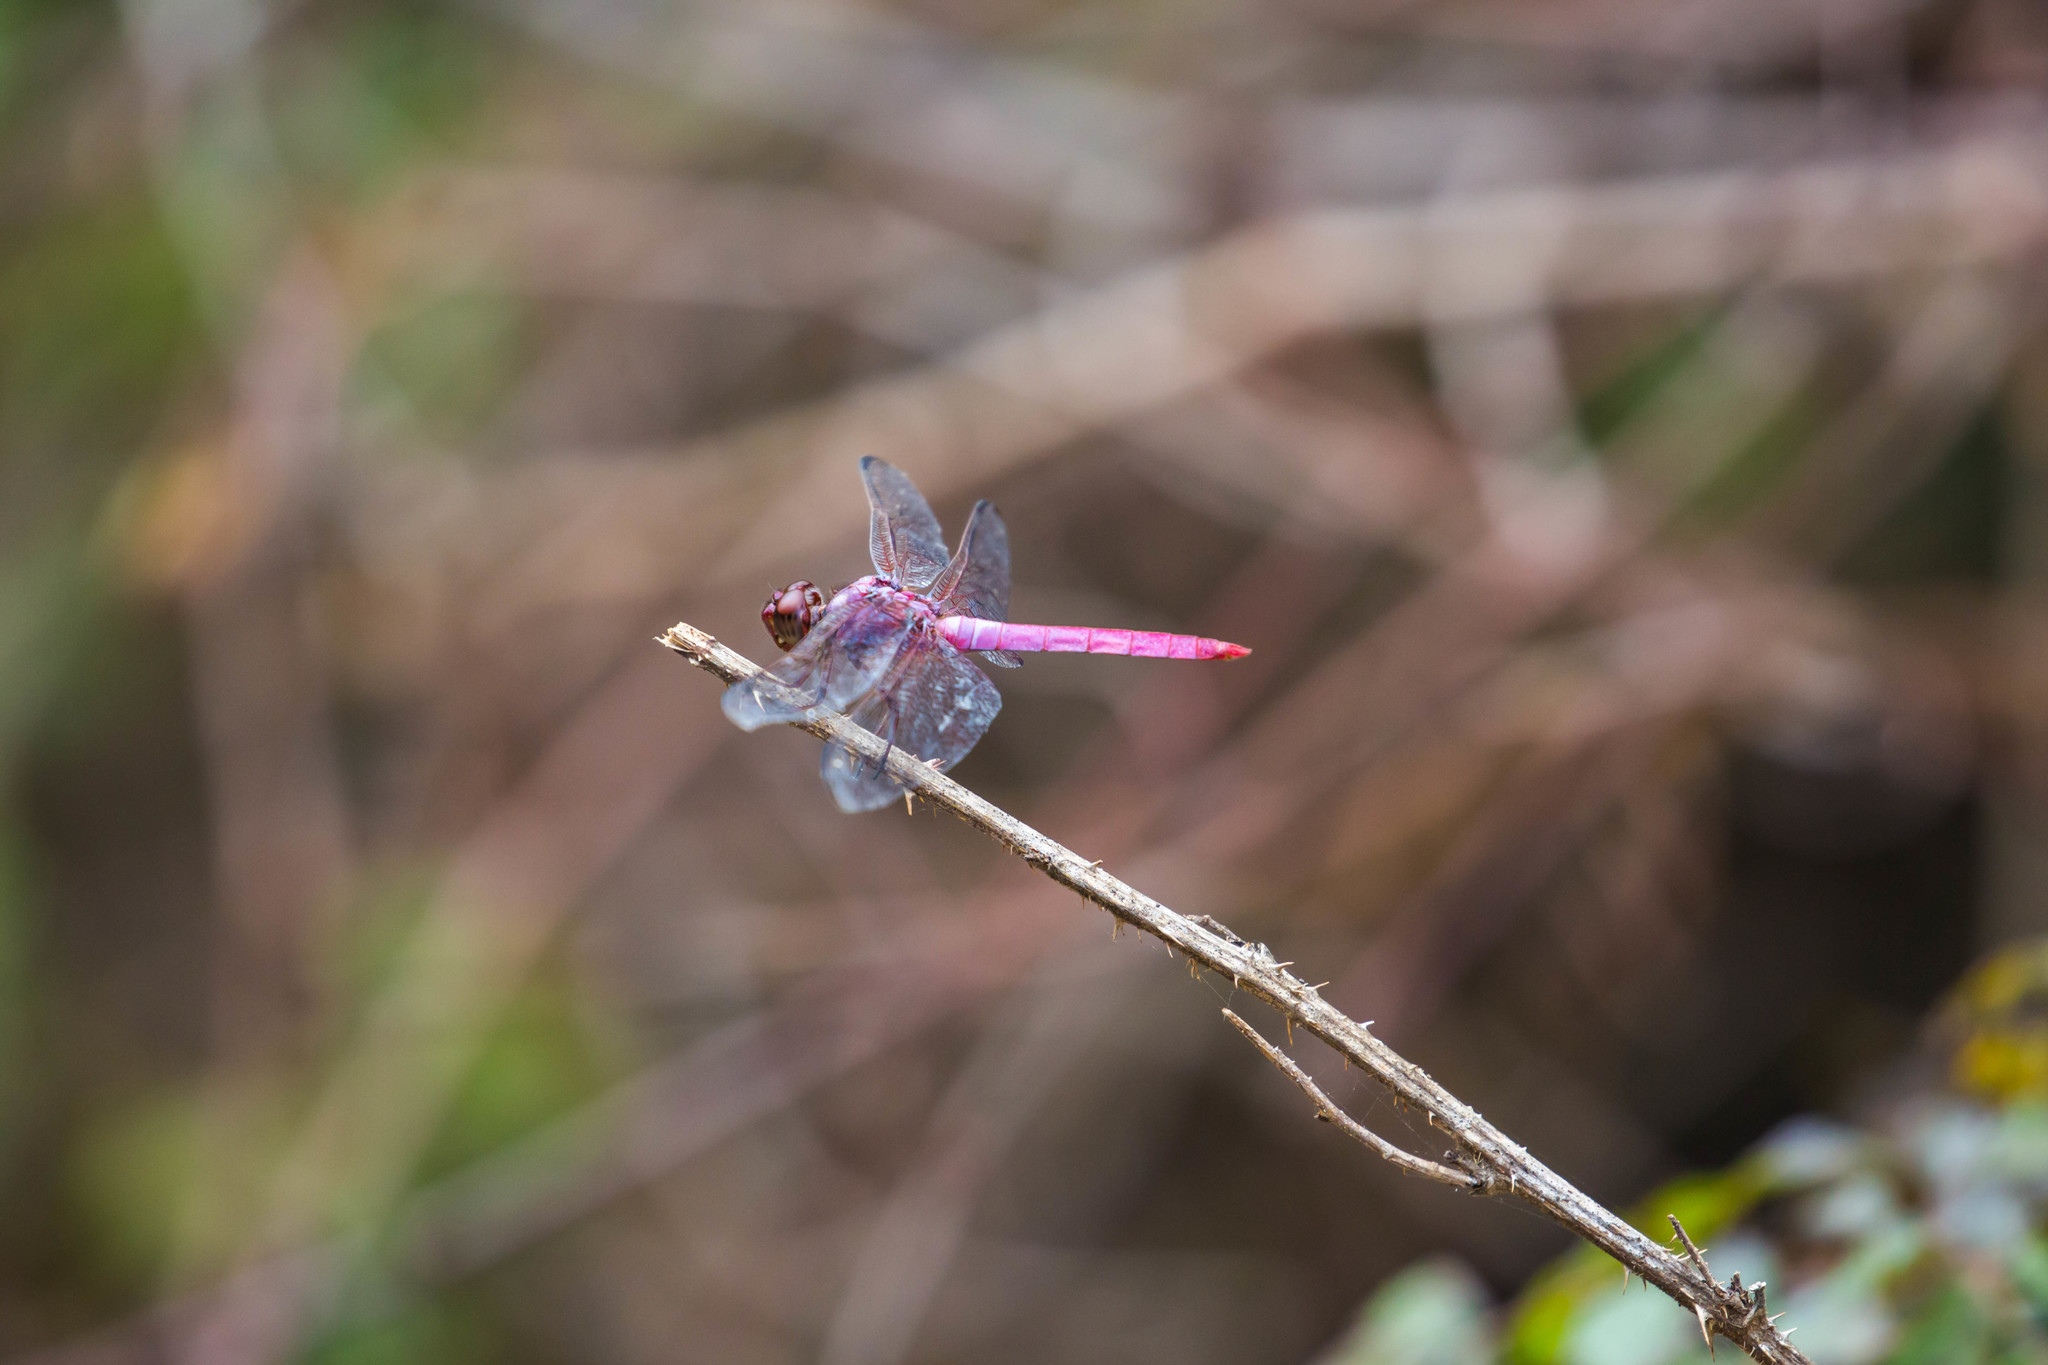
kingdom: Animalia
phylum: Arthropoda
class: Insecta
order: Odonata
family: Libellulidae
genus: Orthemis
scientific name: Orthemis ferruginea
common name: Roseate skimmer
